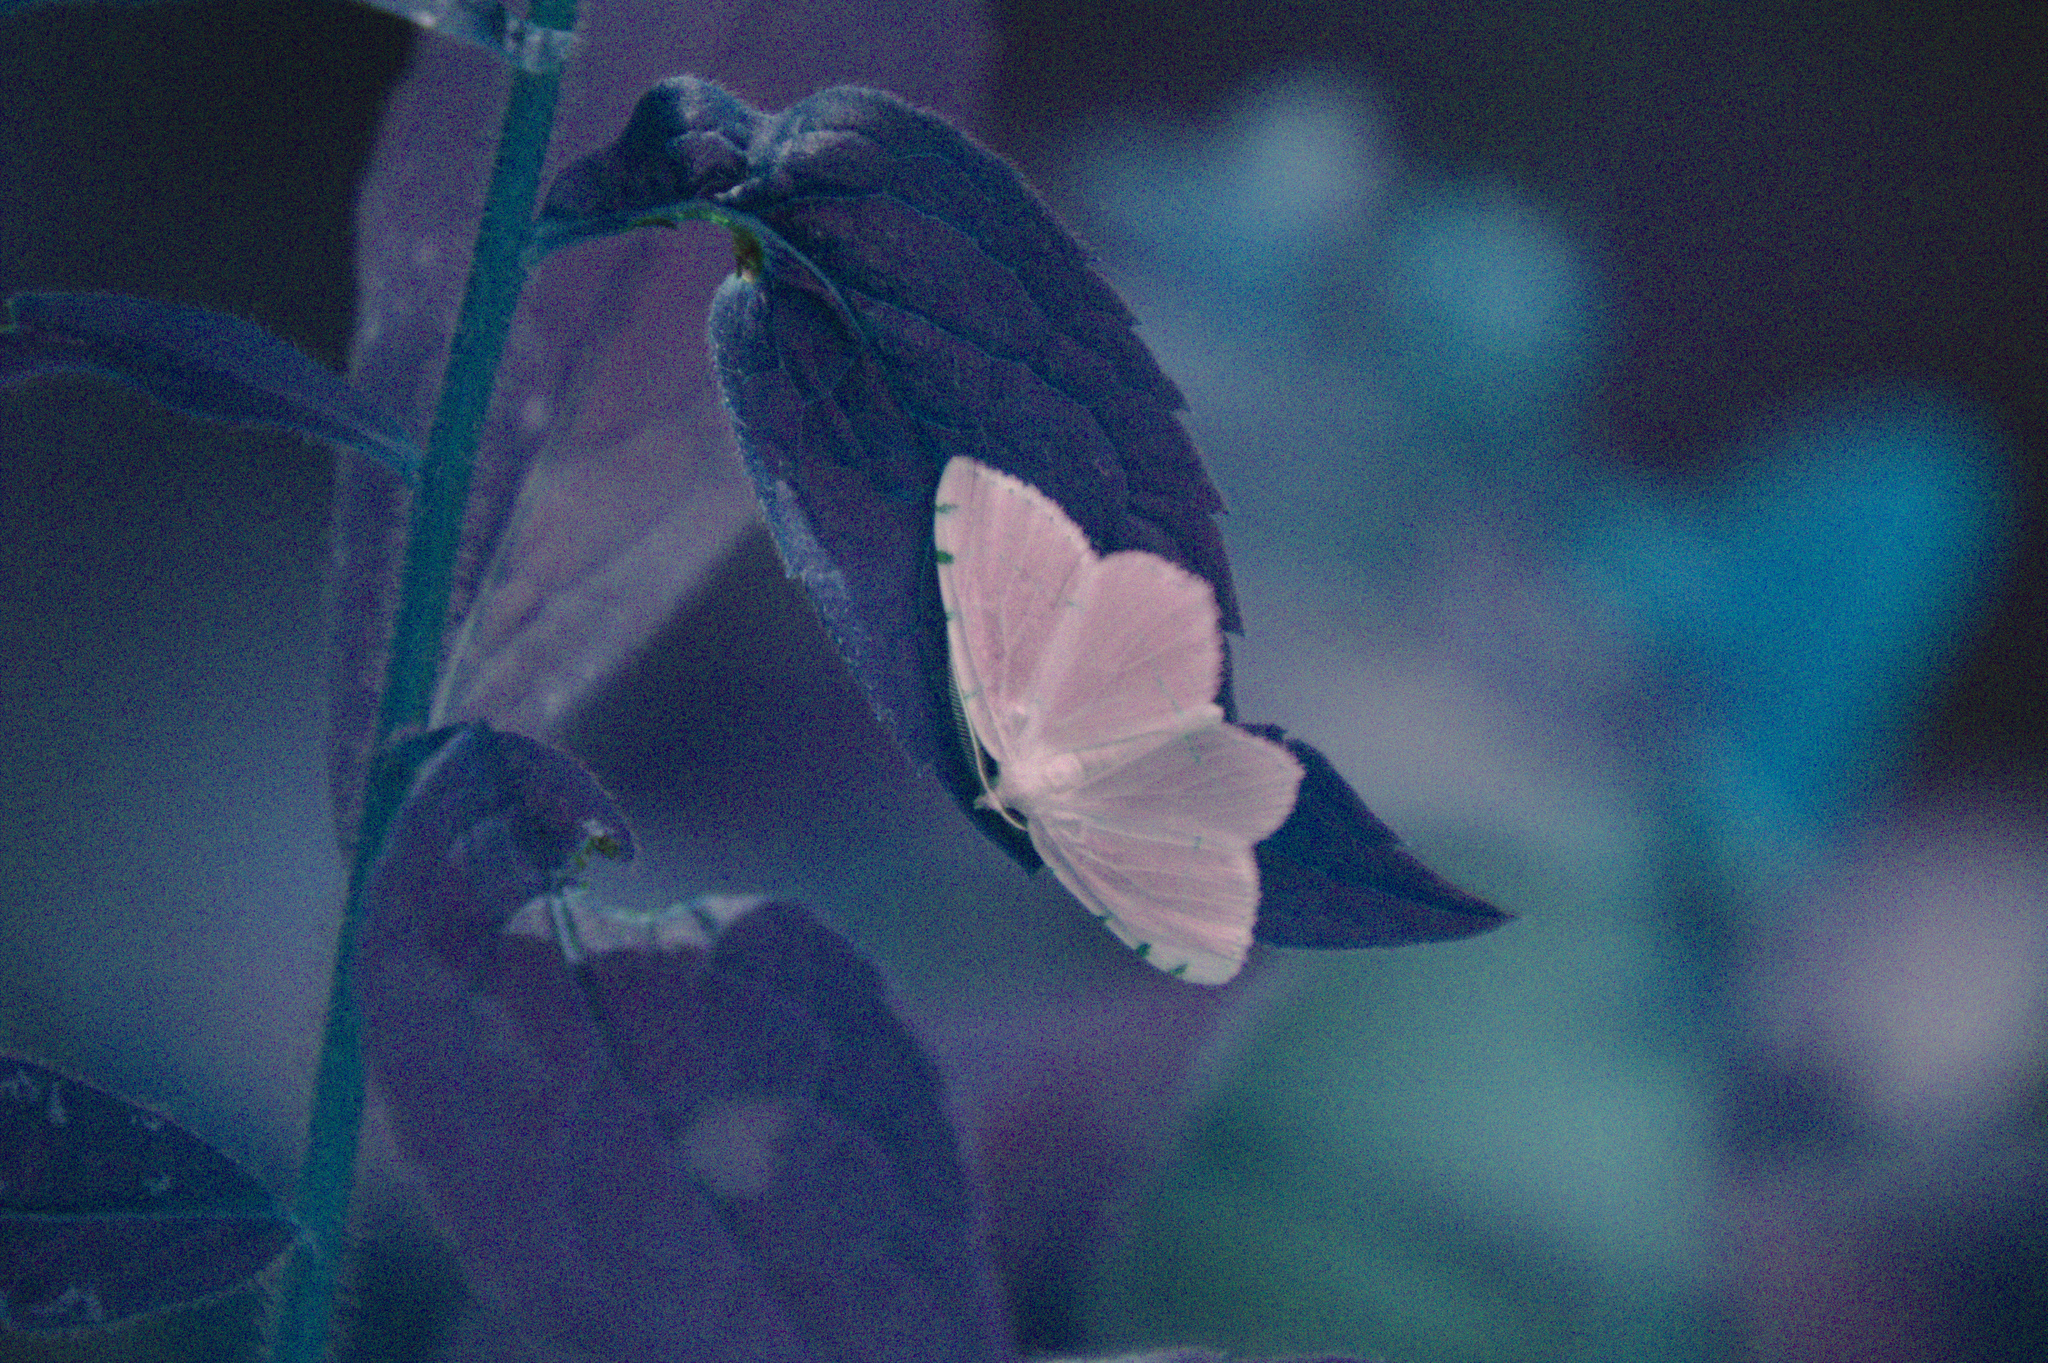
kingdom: Animalia
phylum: Arthropoda
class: Insecta
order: Lepidoptera
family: Geometridae
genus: Macaria
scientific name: Macaria pustularia
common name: Lesser maple spanworm moth
